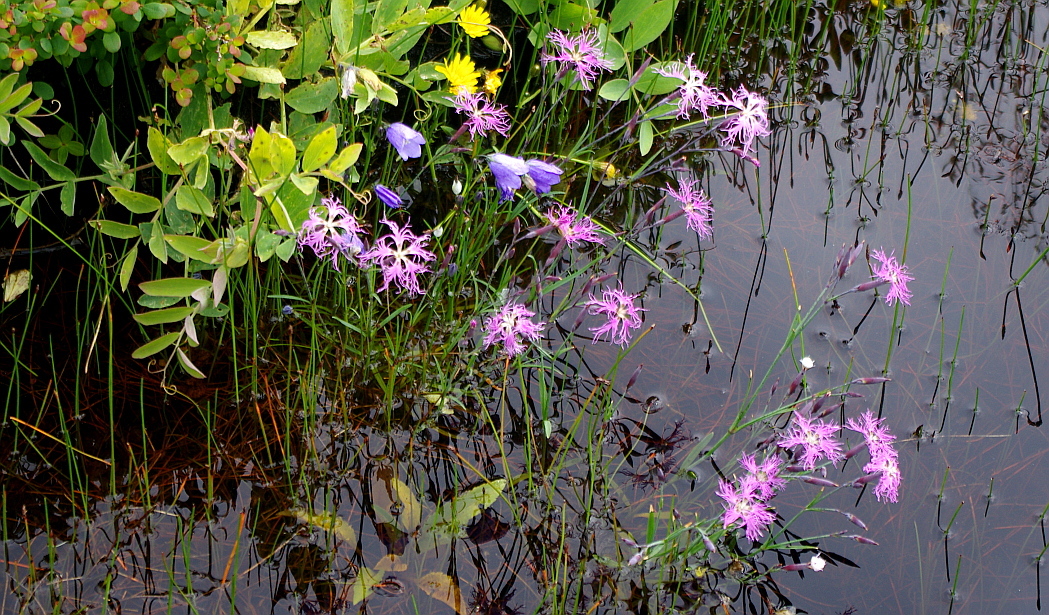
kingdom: Plantae
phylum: Tracheophyta
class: Magnoliopsida
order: Caryophyllales
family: Caryophyllaceae
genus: Dianthus
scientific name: Dianthus superbus
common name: Fringed pink
